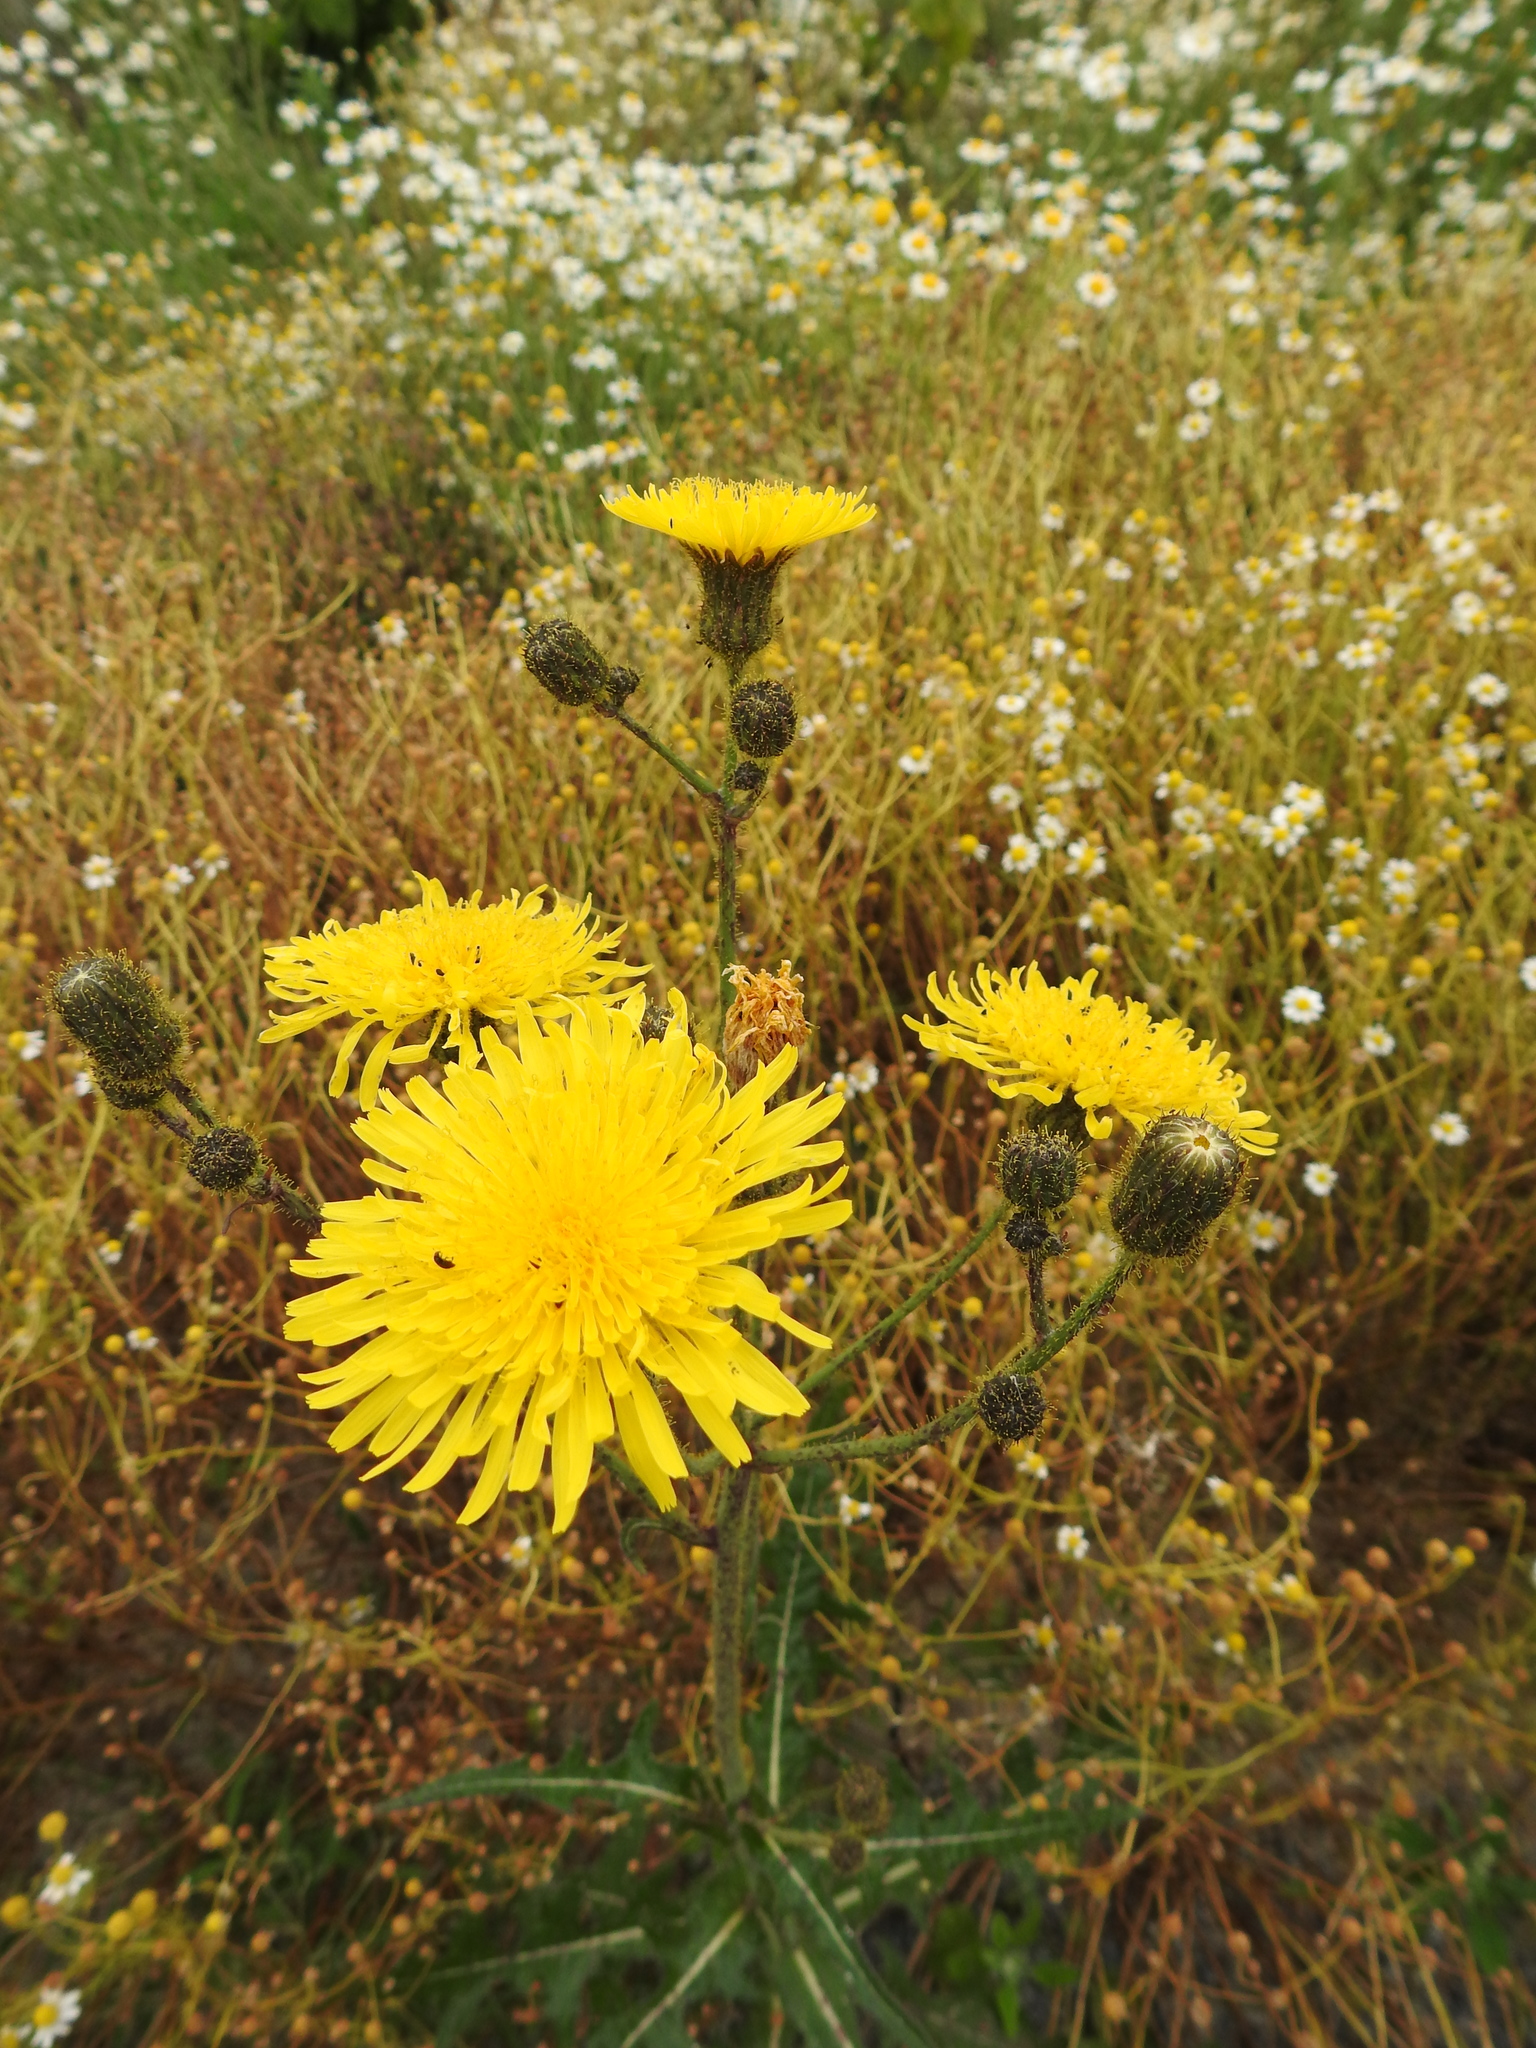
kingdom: Plantae
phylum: Tracheophyta
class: Magnoliopsida
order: Asterales
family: Asteraceae
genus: Sonchus
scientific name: Sonchus palustris
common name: Marsh sow-thistle
